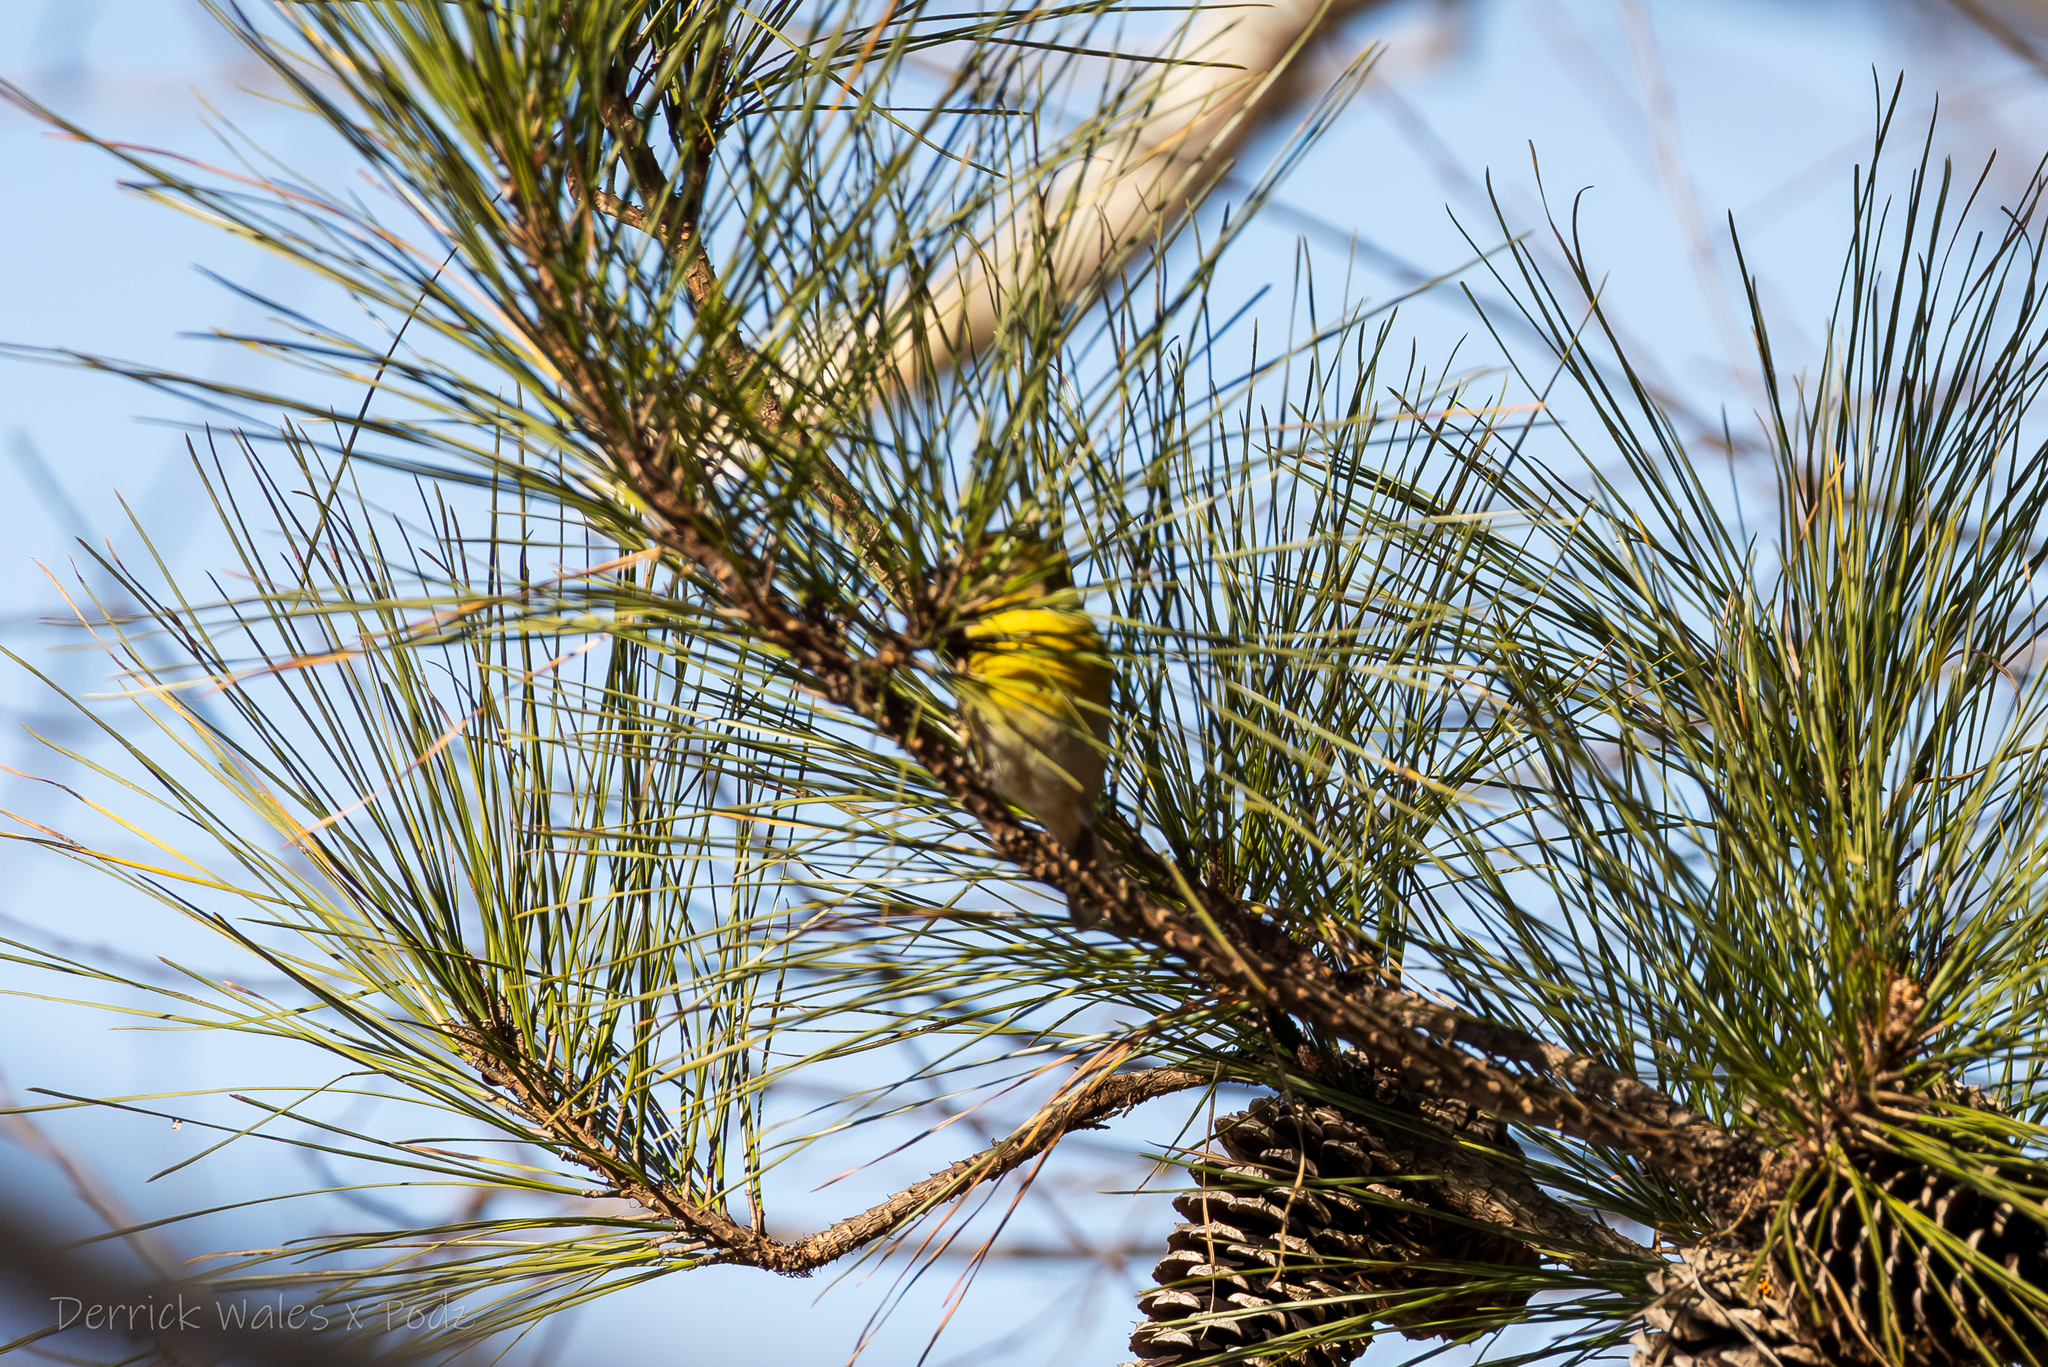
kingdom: Animalia
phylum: Chordata
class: Aves
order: Passeriformes
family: Parulidae
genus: Setophaga
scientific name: Setophaga pinus
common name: Pine warbler
